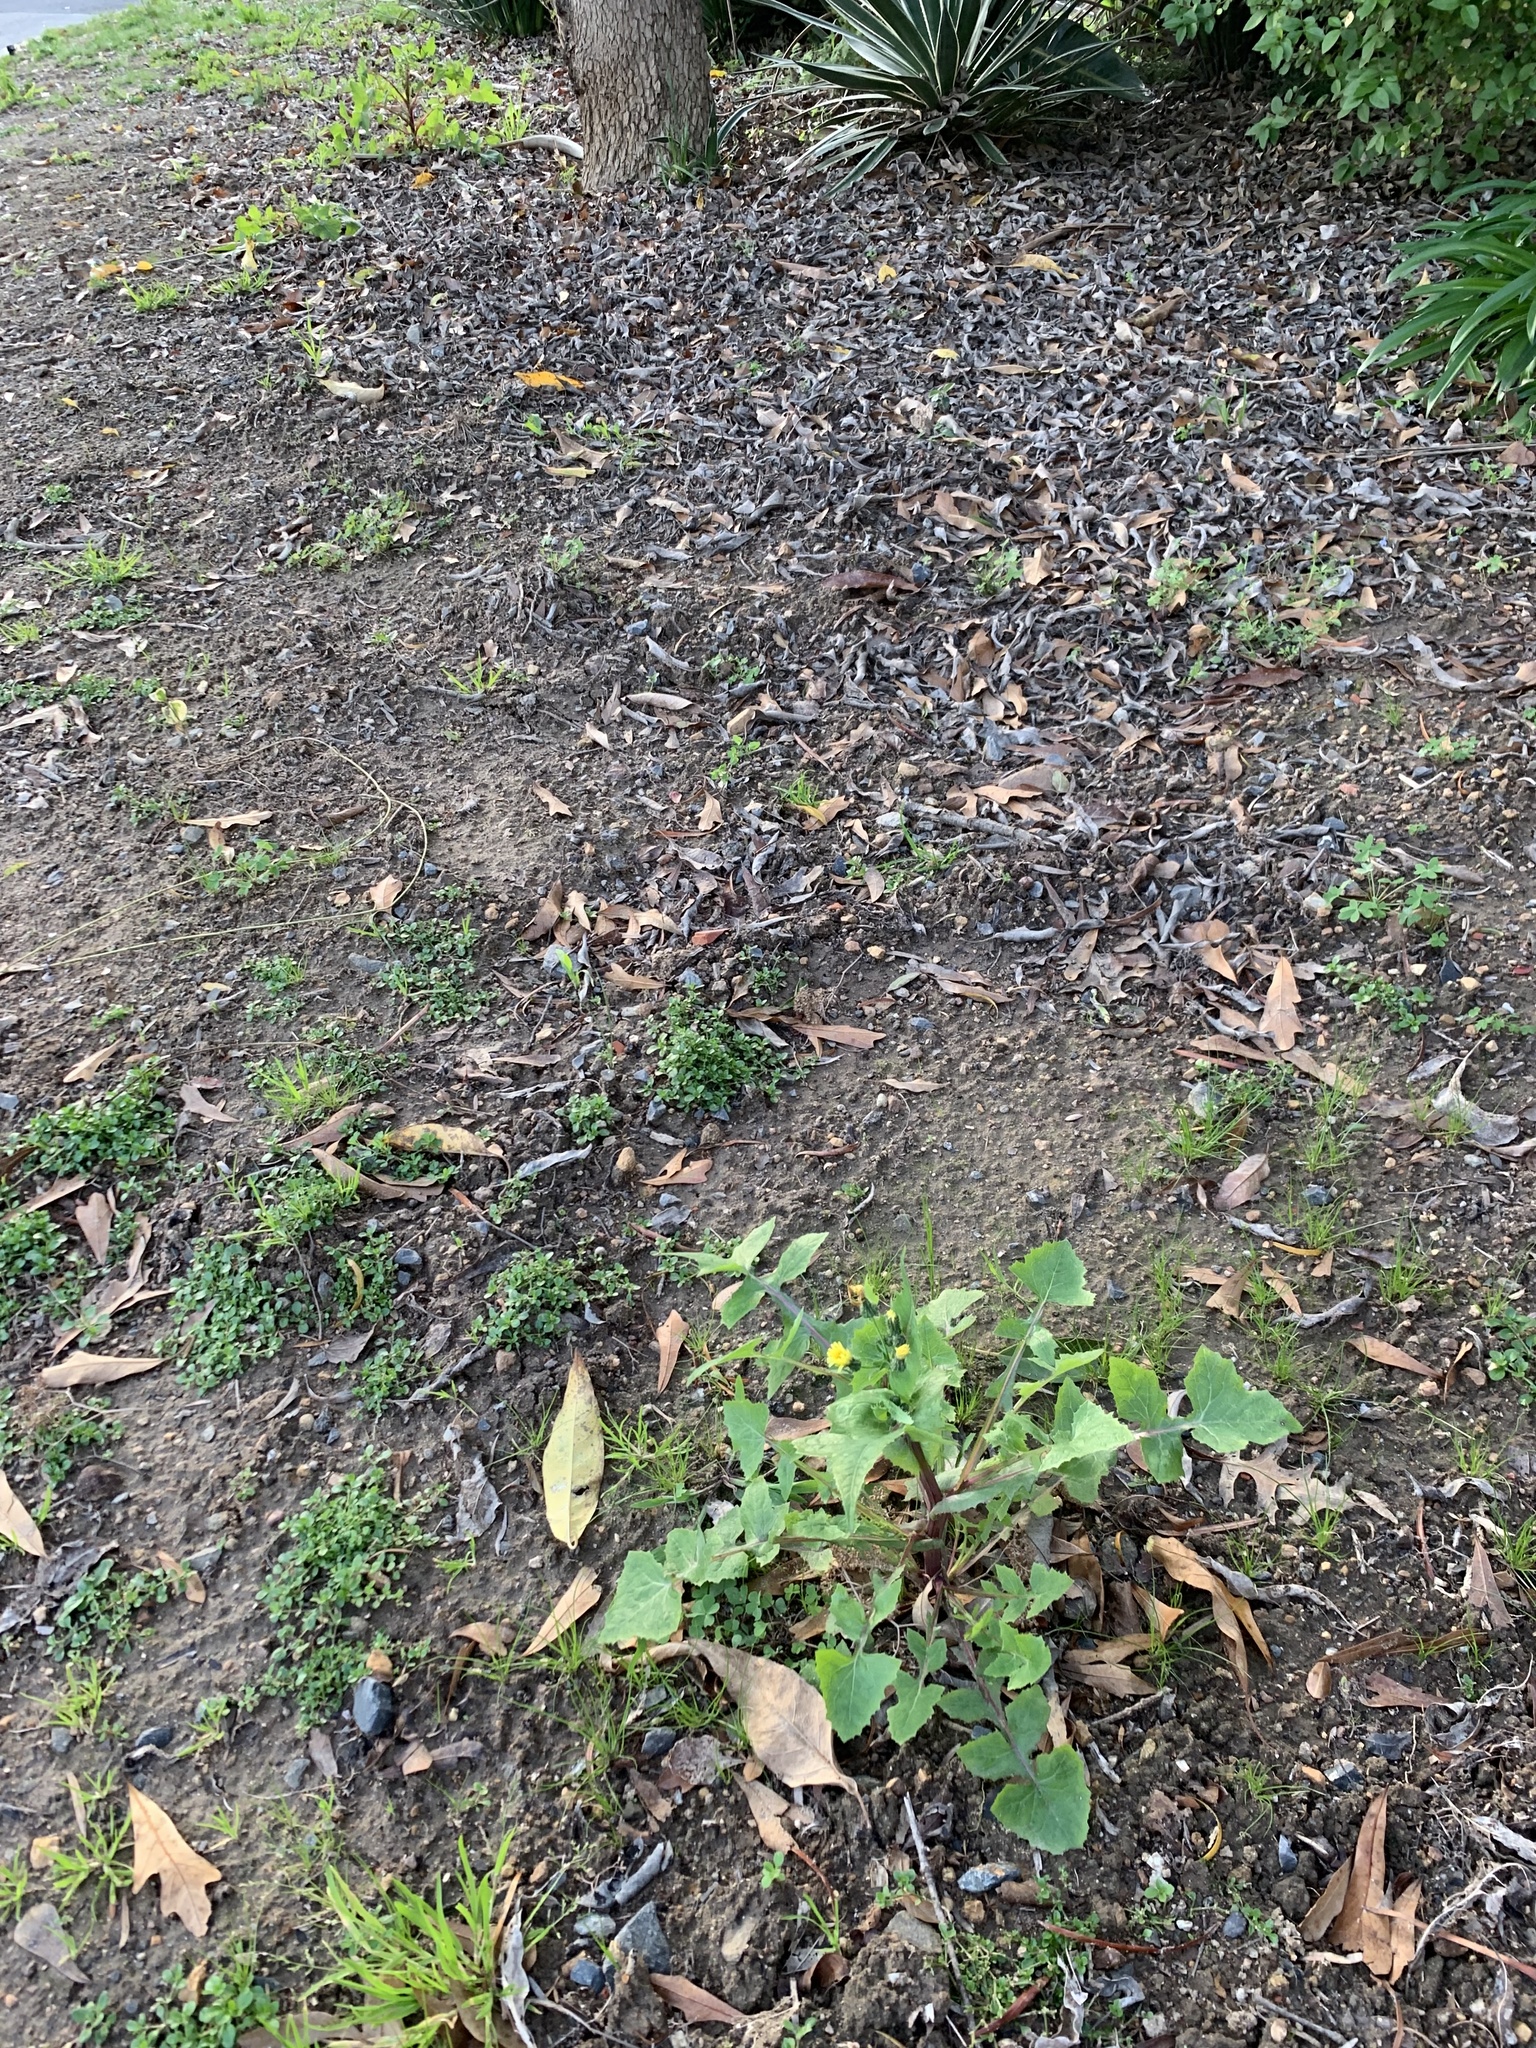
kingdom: Plantae
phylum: Tracheophyta
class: Magnoliopsida
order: Asterales
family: Asteraceae
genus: Sonchus
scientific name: Sonchus oleraceus
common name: Common sowthistle
